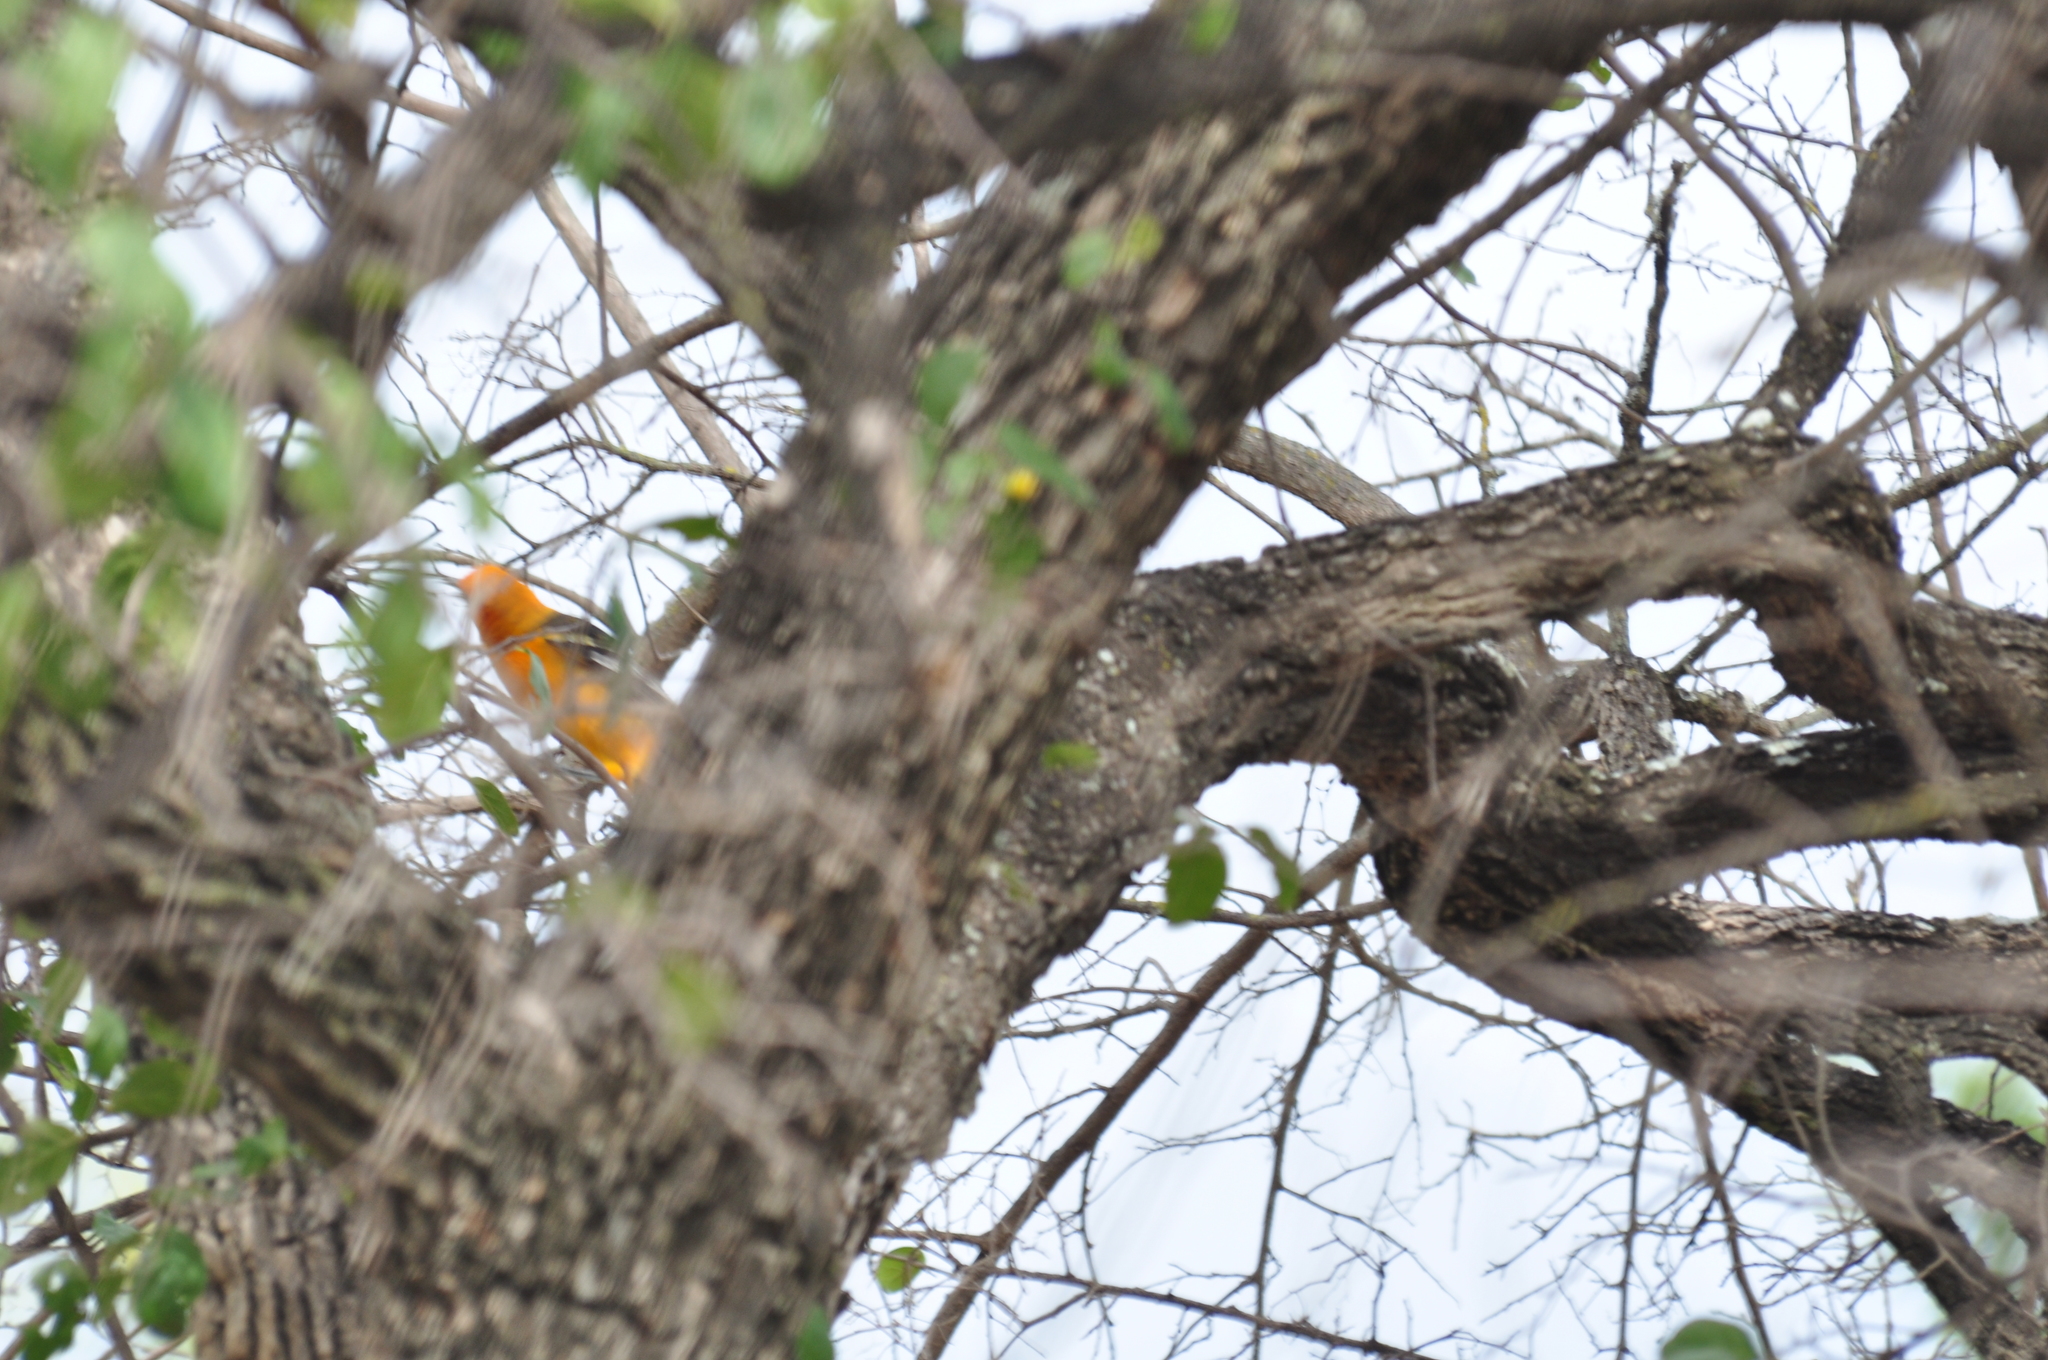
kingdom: Animalia
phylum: Chordata
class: Aves
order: Passeriformes
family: Icteridae
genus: Icterus
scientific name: Icterus gularis
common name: Altamira oriole
